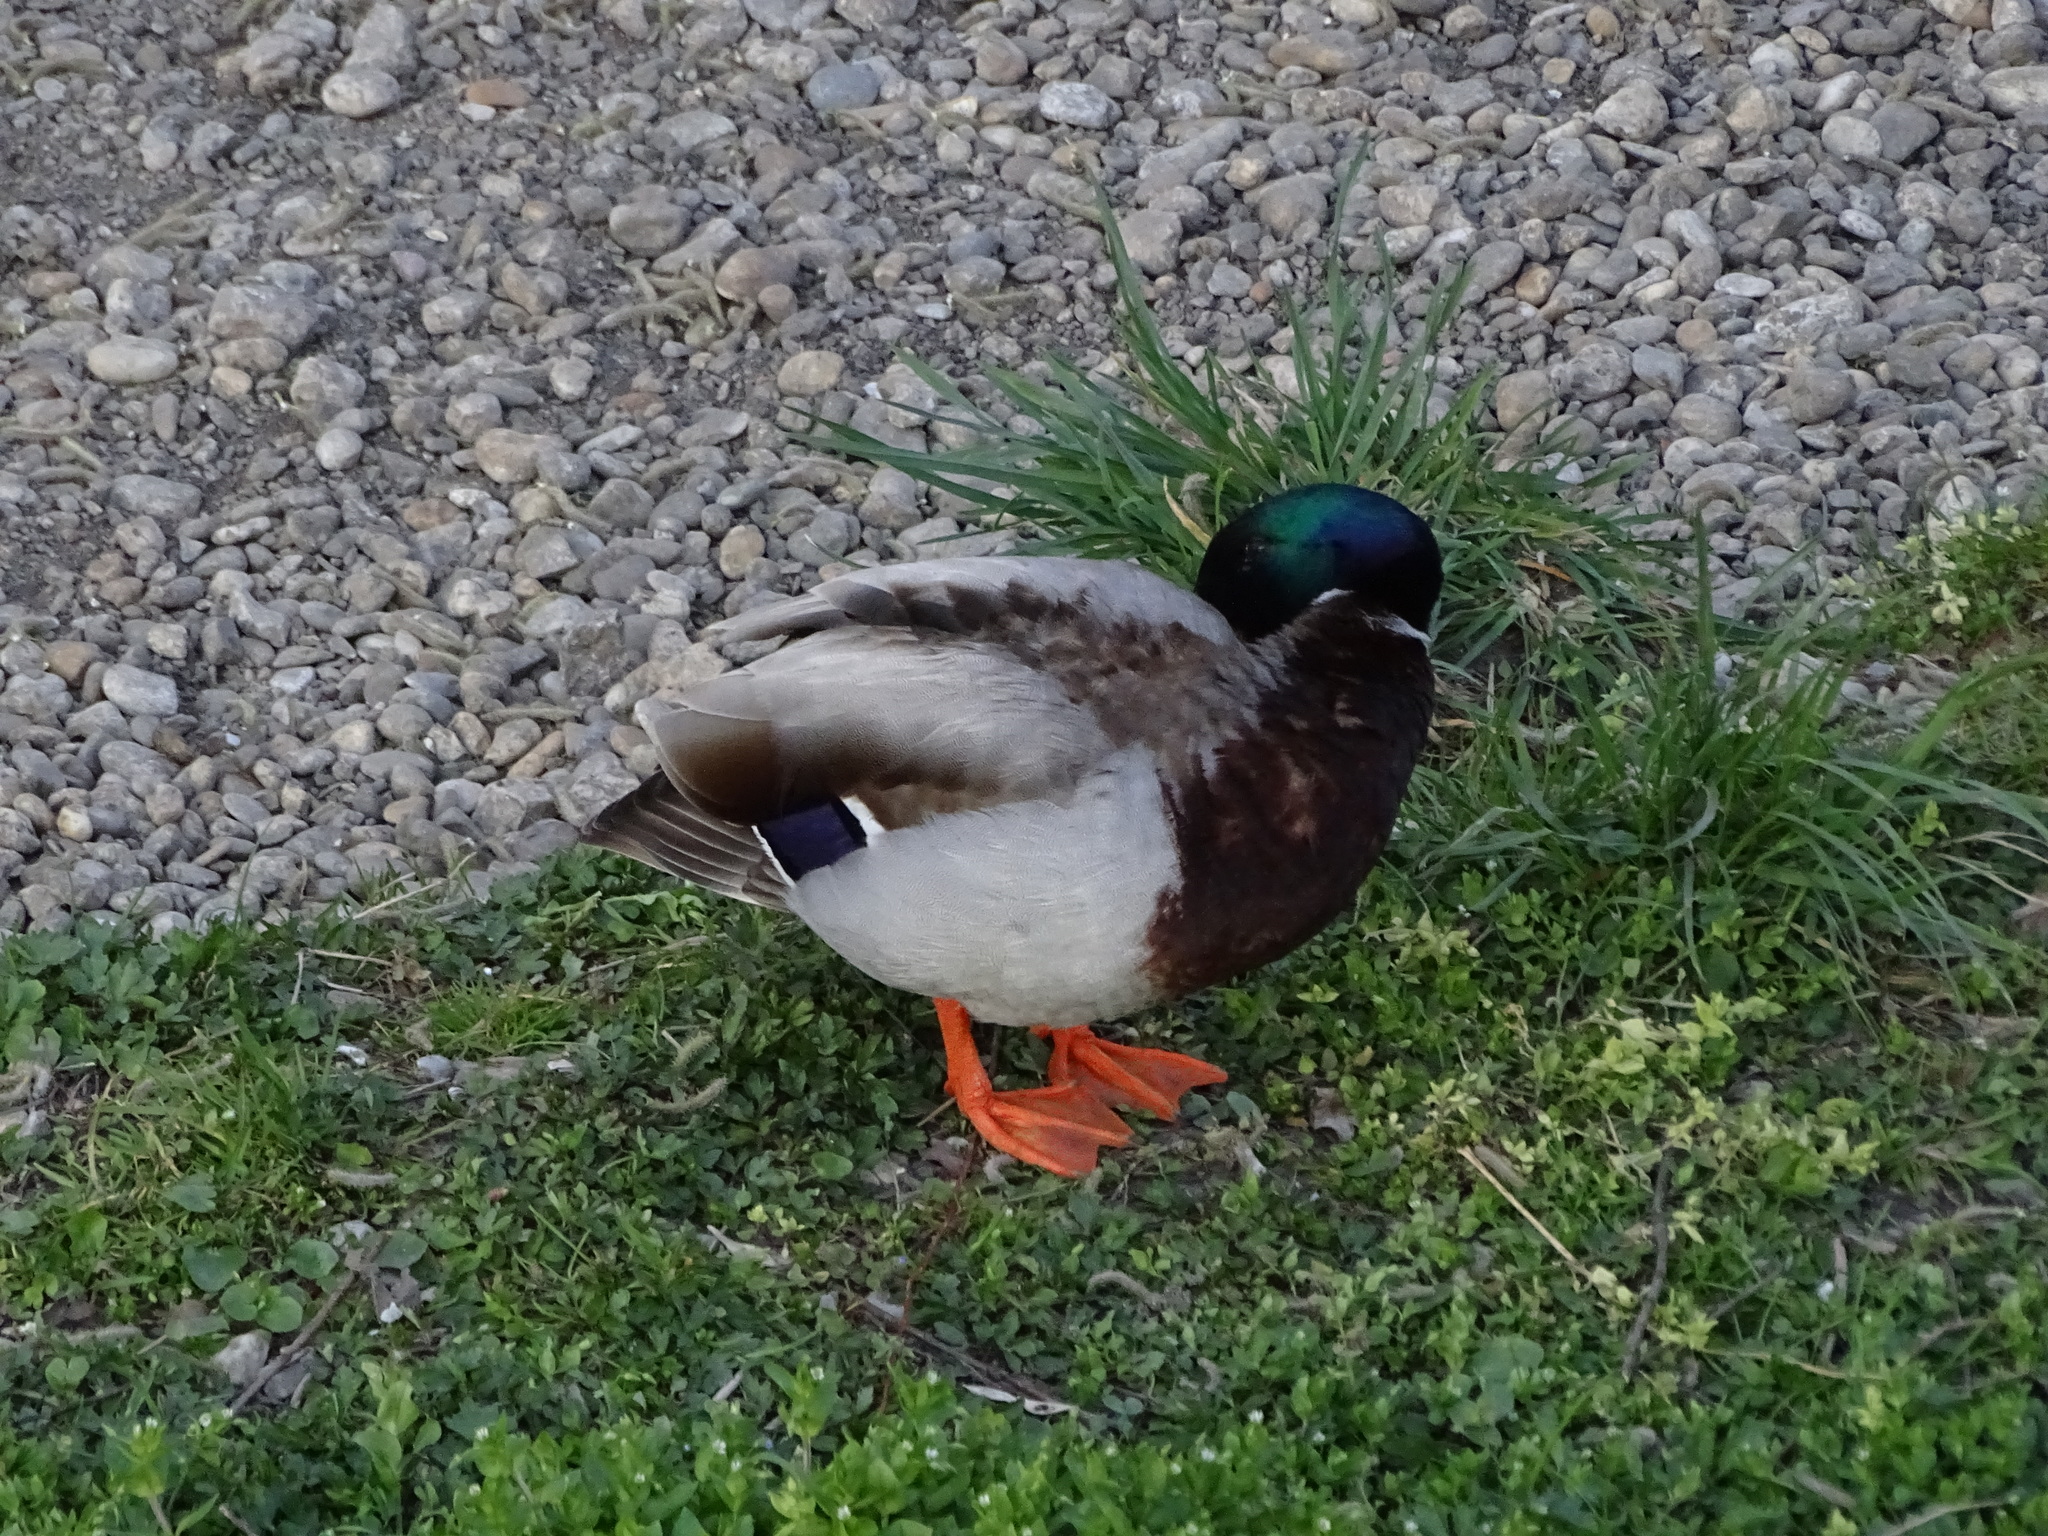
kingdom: Animalia
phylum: Chordata
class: Aves
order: Anseriformes
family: Anatidae
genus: Anas
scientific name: Anas platyrhynchos
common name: Mallard
